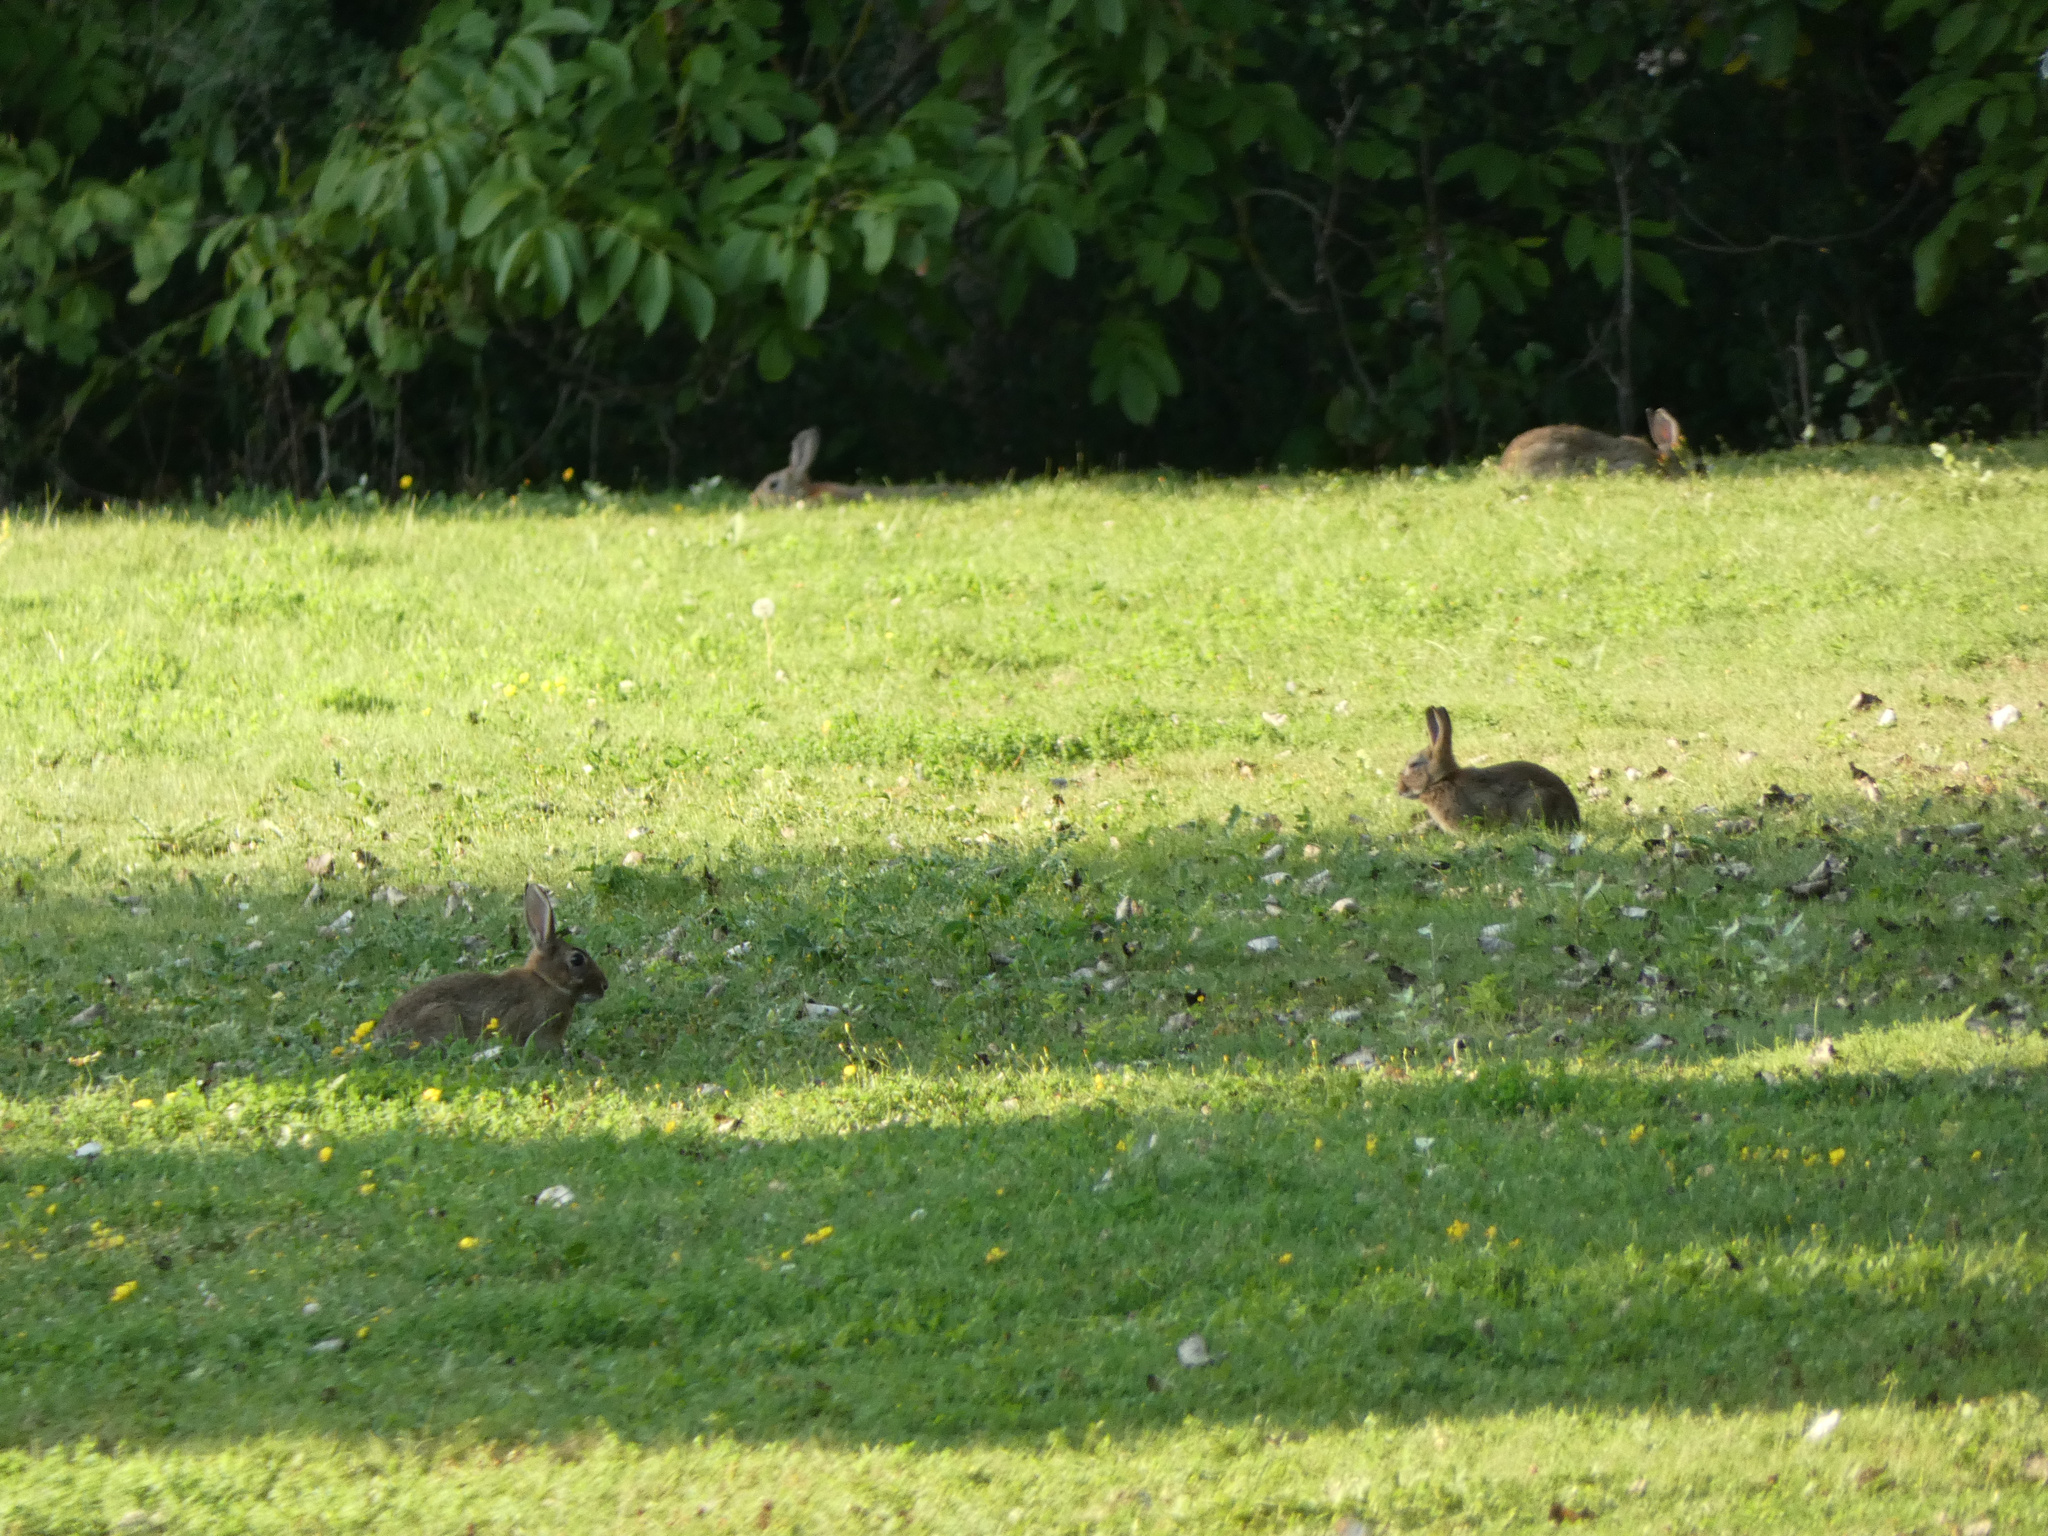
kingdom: Animalia
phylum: Chordata
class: Mammalia
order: Lagomorpha
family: Leporidae
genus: Oryctolagus
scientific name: Oryctolagus cuniculus
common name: European rabbit
